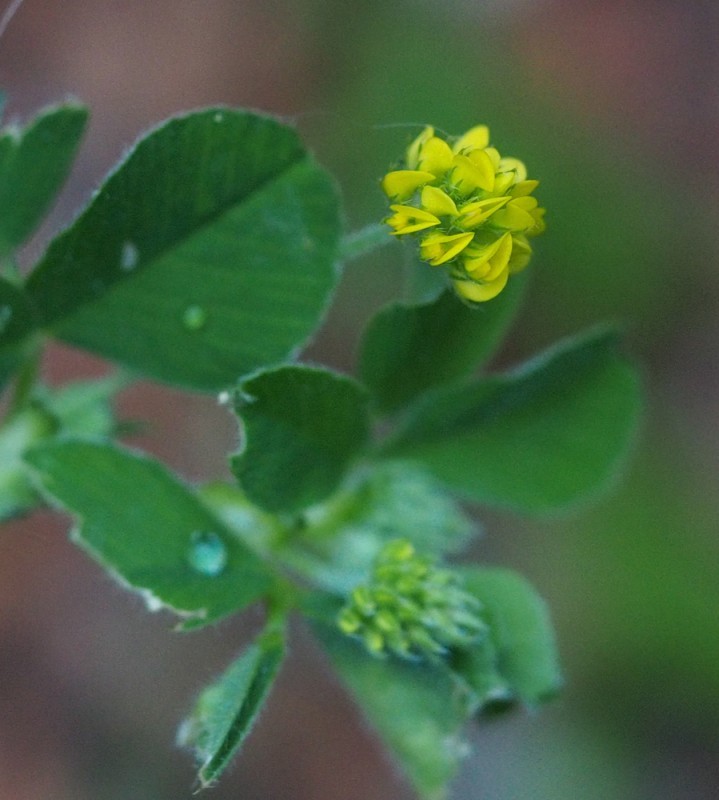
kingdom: Plantae
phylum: Tracheophyta
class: Magnoliopsida
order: Fabales
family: Fabaceae
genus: Medicago
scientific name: Medicago lupulina
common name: Black medick
